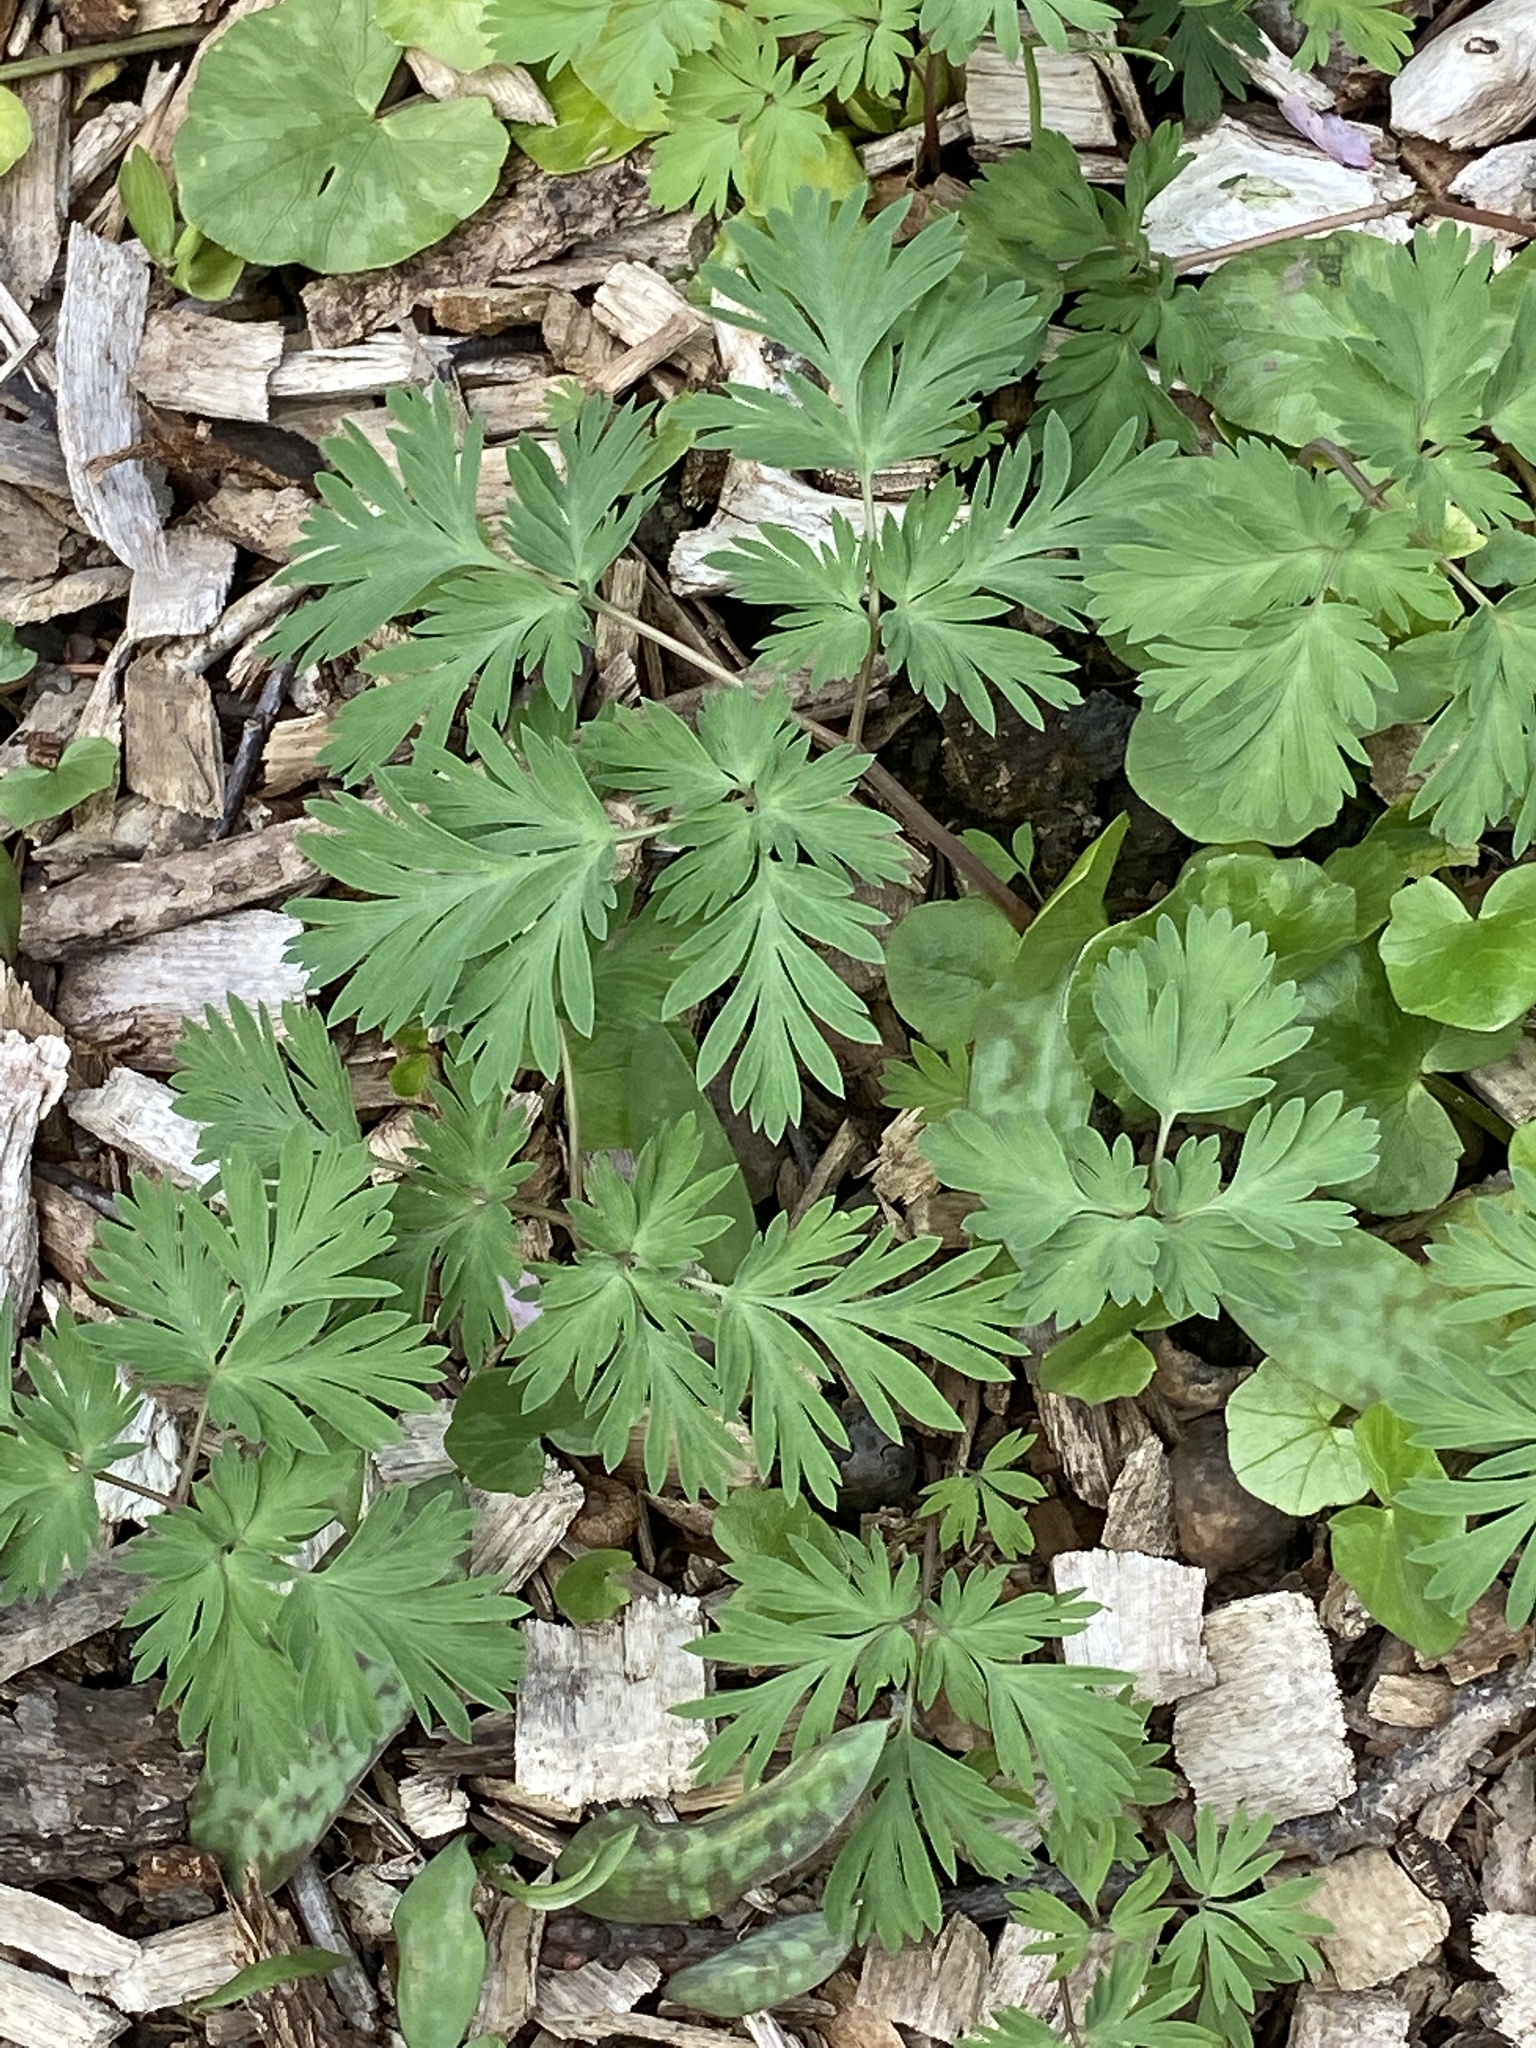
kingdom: Plantae
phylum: Tracheophyta
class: Magnoliopsida
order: Ranunculales
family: Papaveraceae
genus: Dicentra
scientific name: Dicentra cucullaria
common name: Dutchman's breeches
